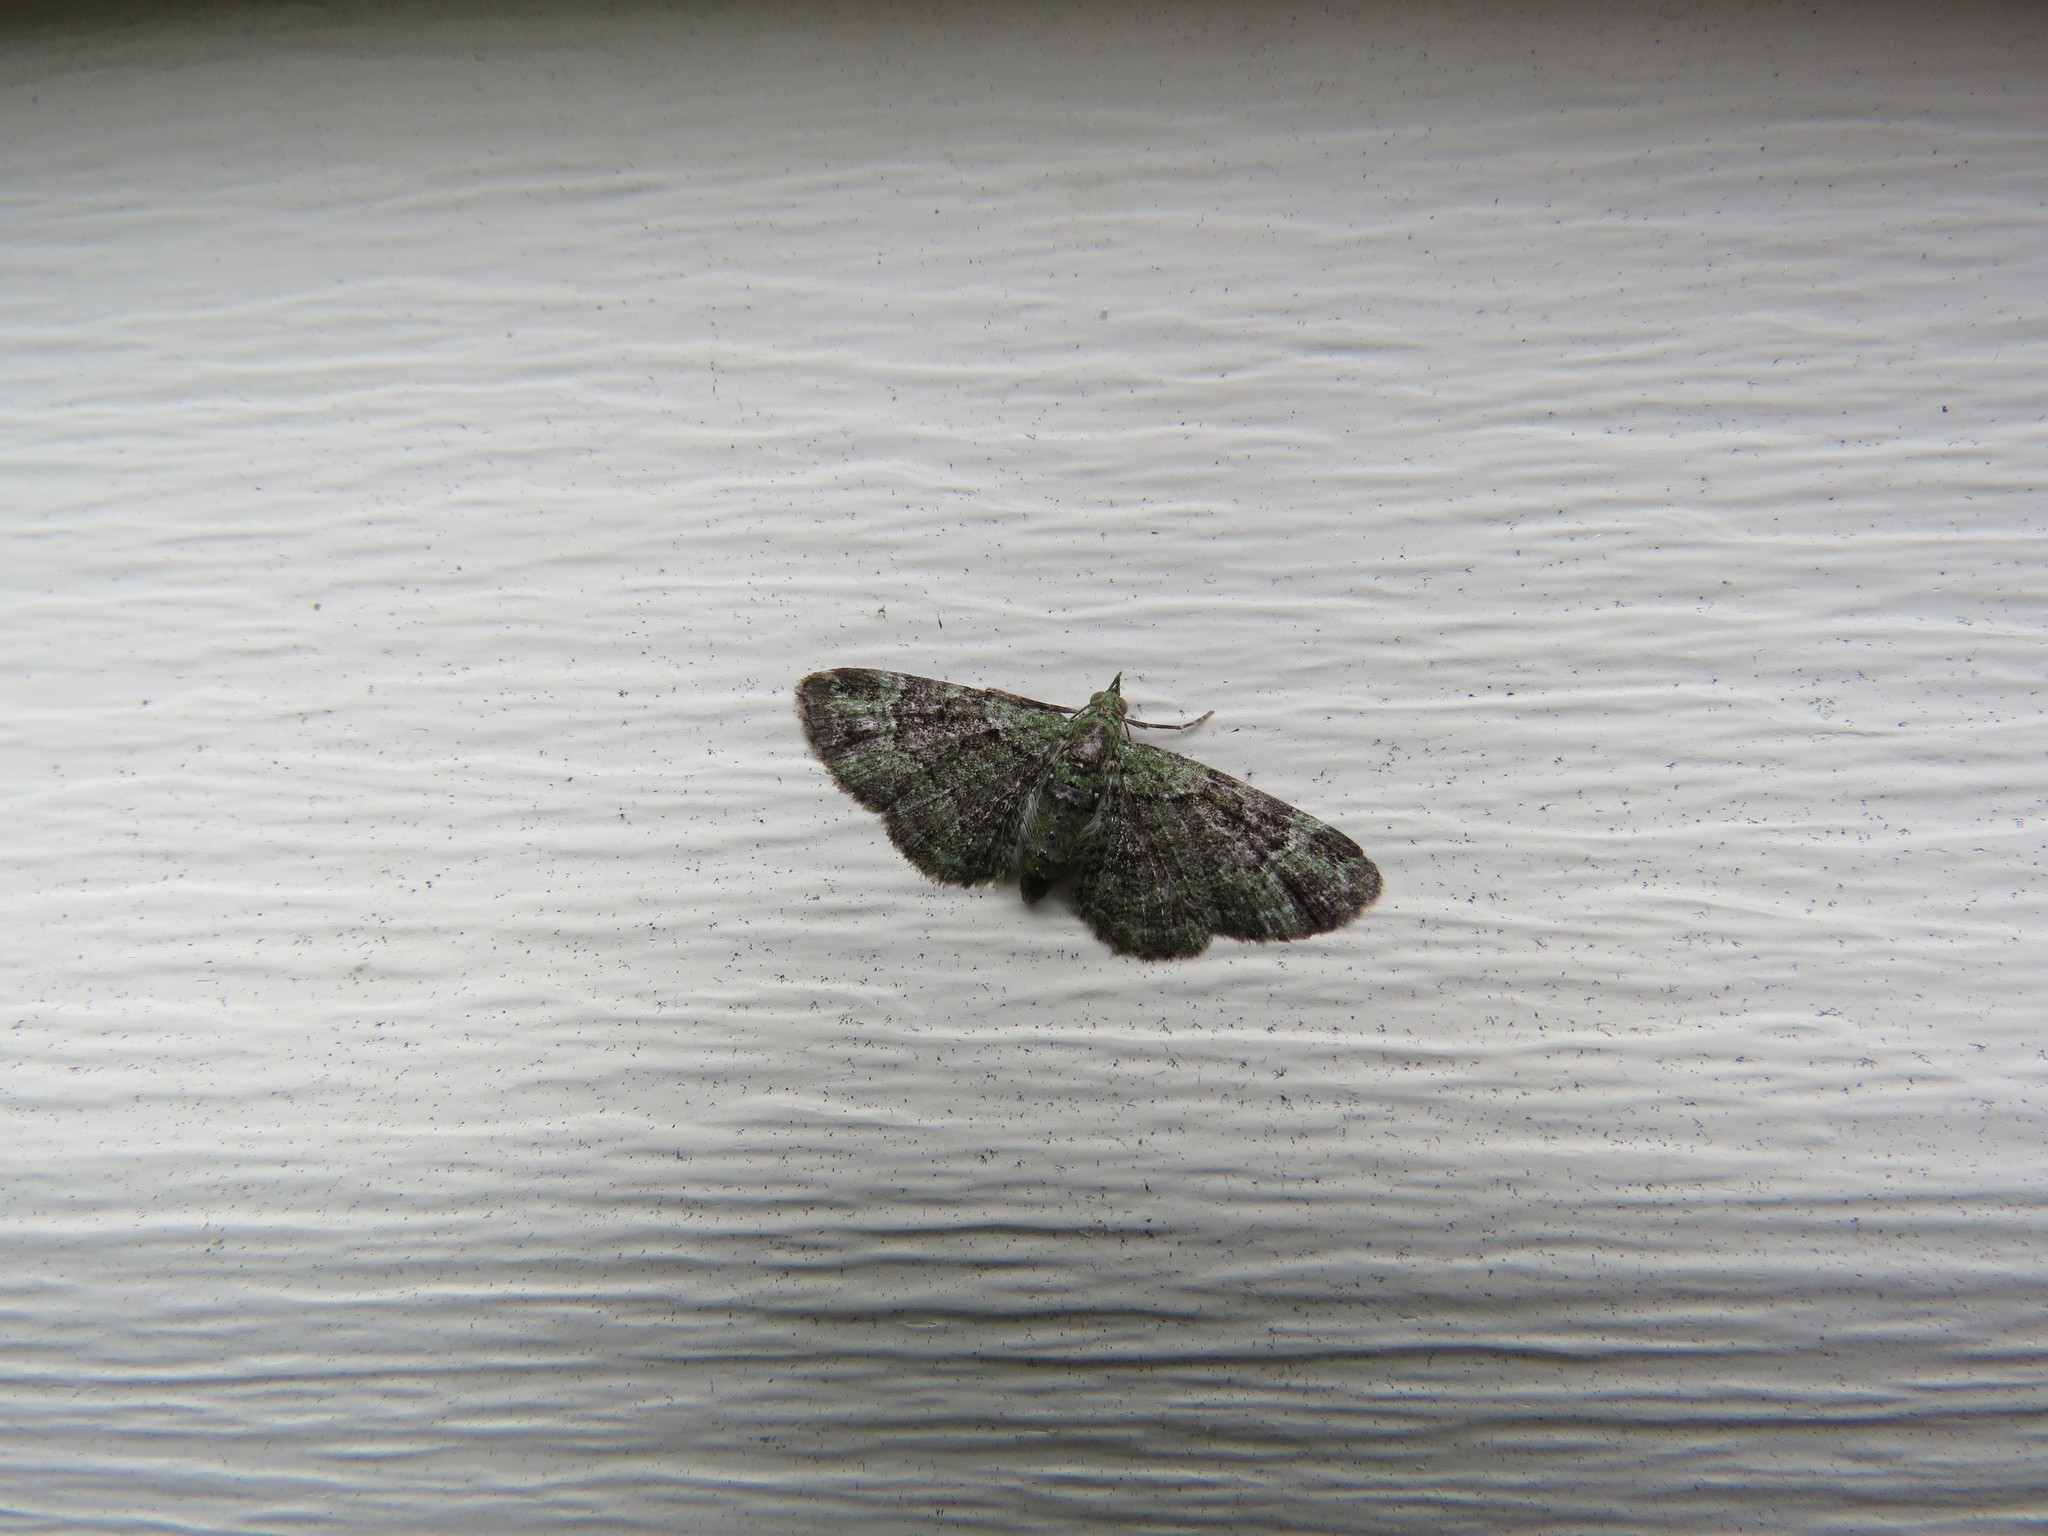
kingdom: Animalia
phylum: Arthropoda
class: Insecta
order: Lepidoptera
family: Geometridae
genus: Pasiphila
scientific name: Pasiphila rectangulata
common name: Green pug
